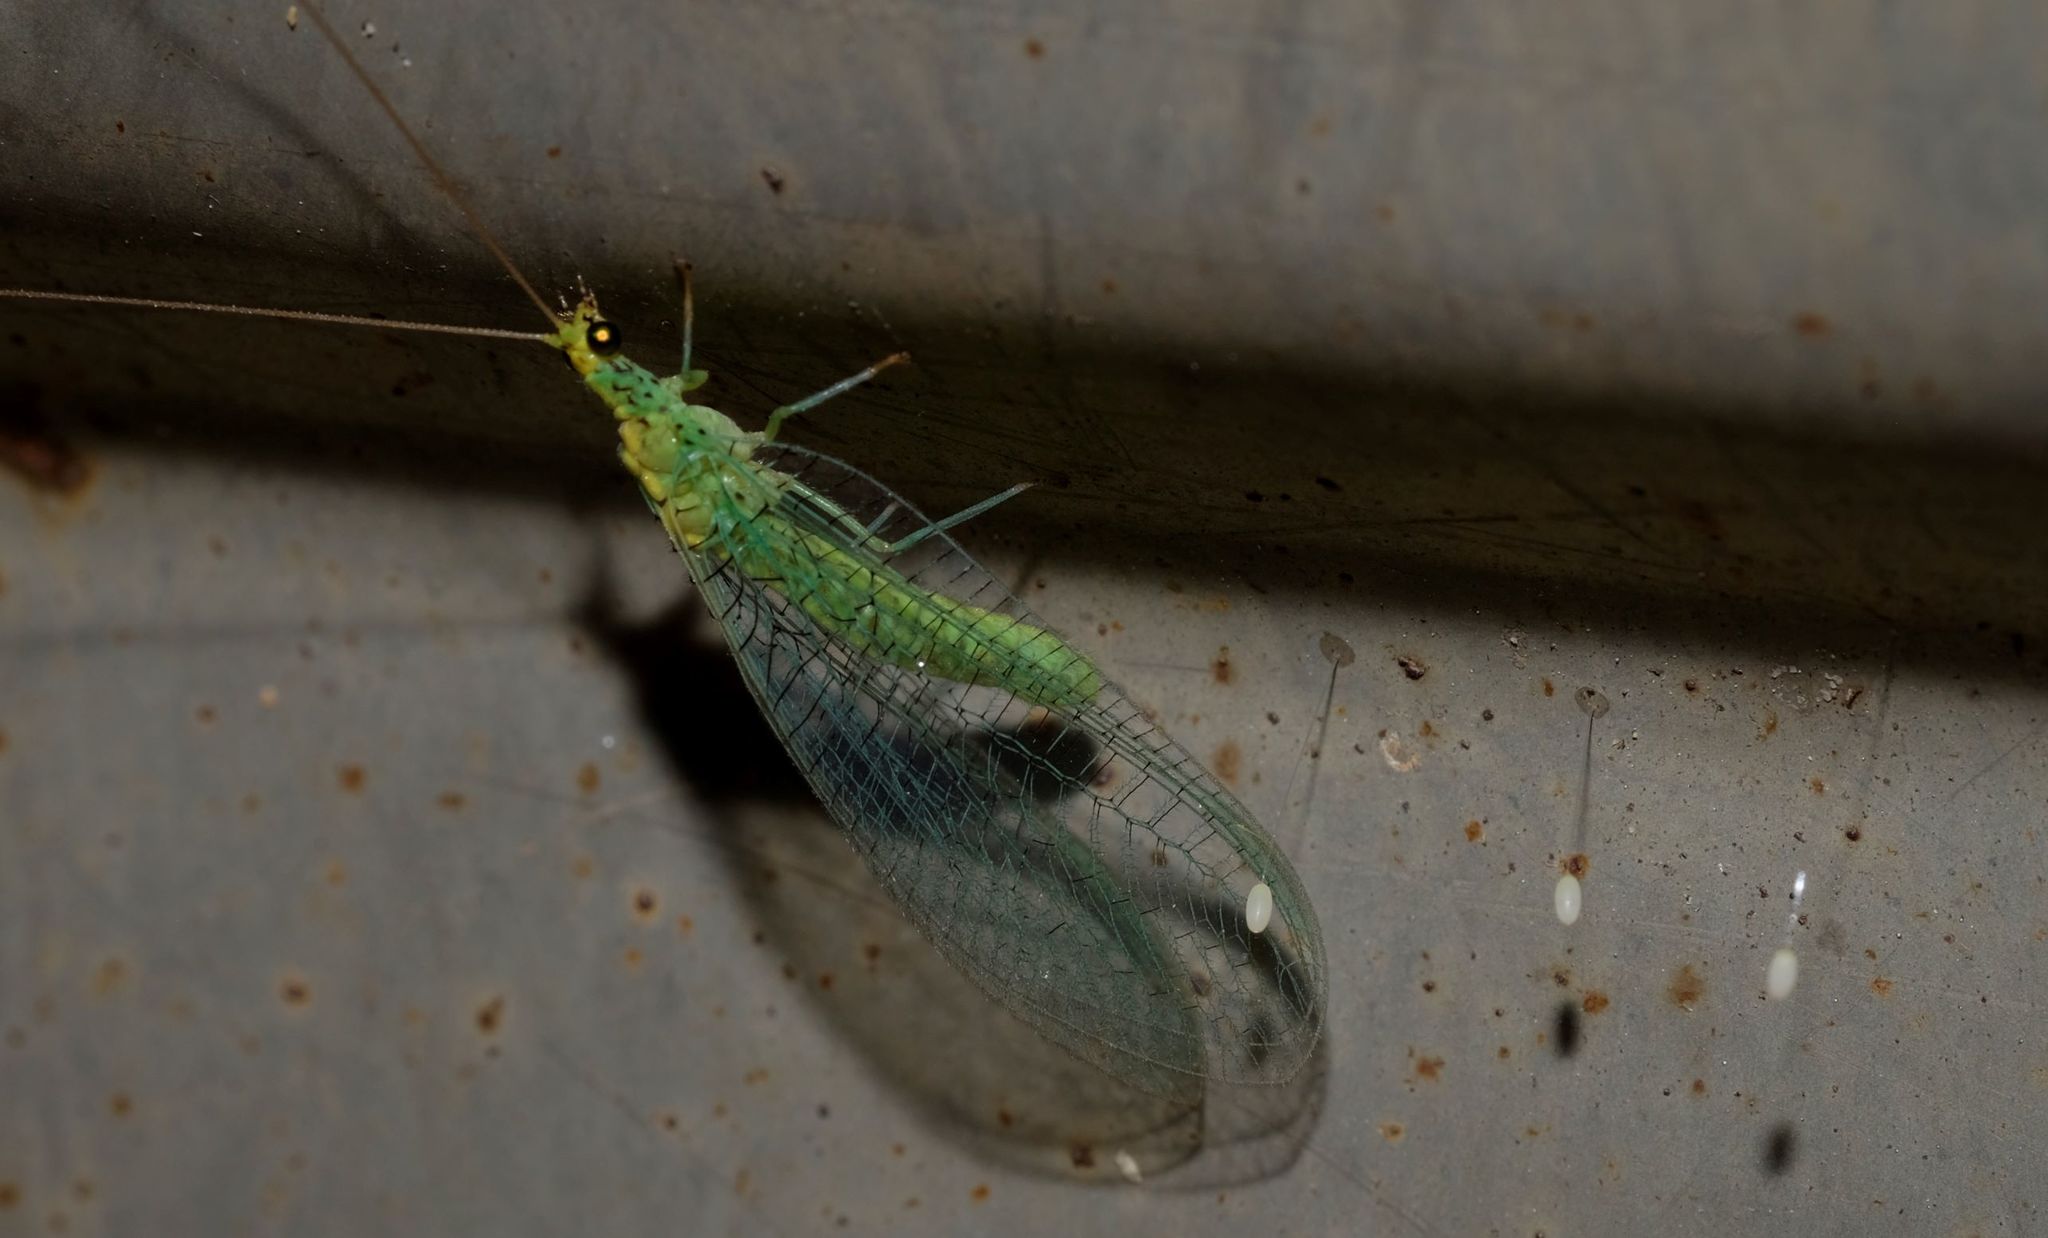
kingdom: Animalia
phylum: Arthropoda
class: Insecta
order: Neuroptera
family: Chrysopidae
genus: Pseudomallada
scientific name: Pseudomallada edwardsi
